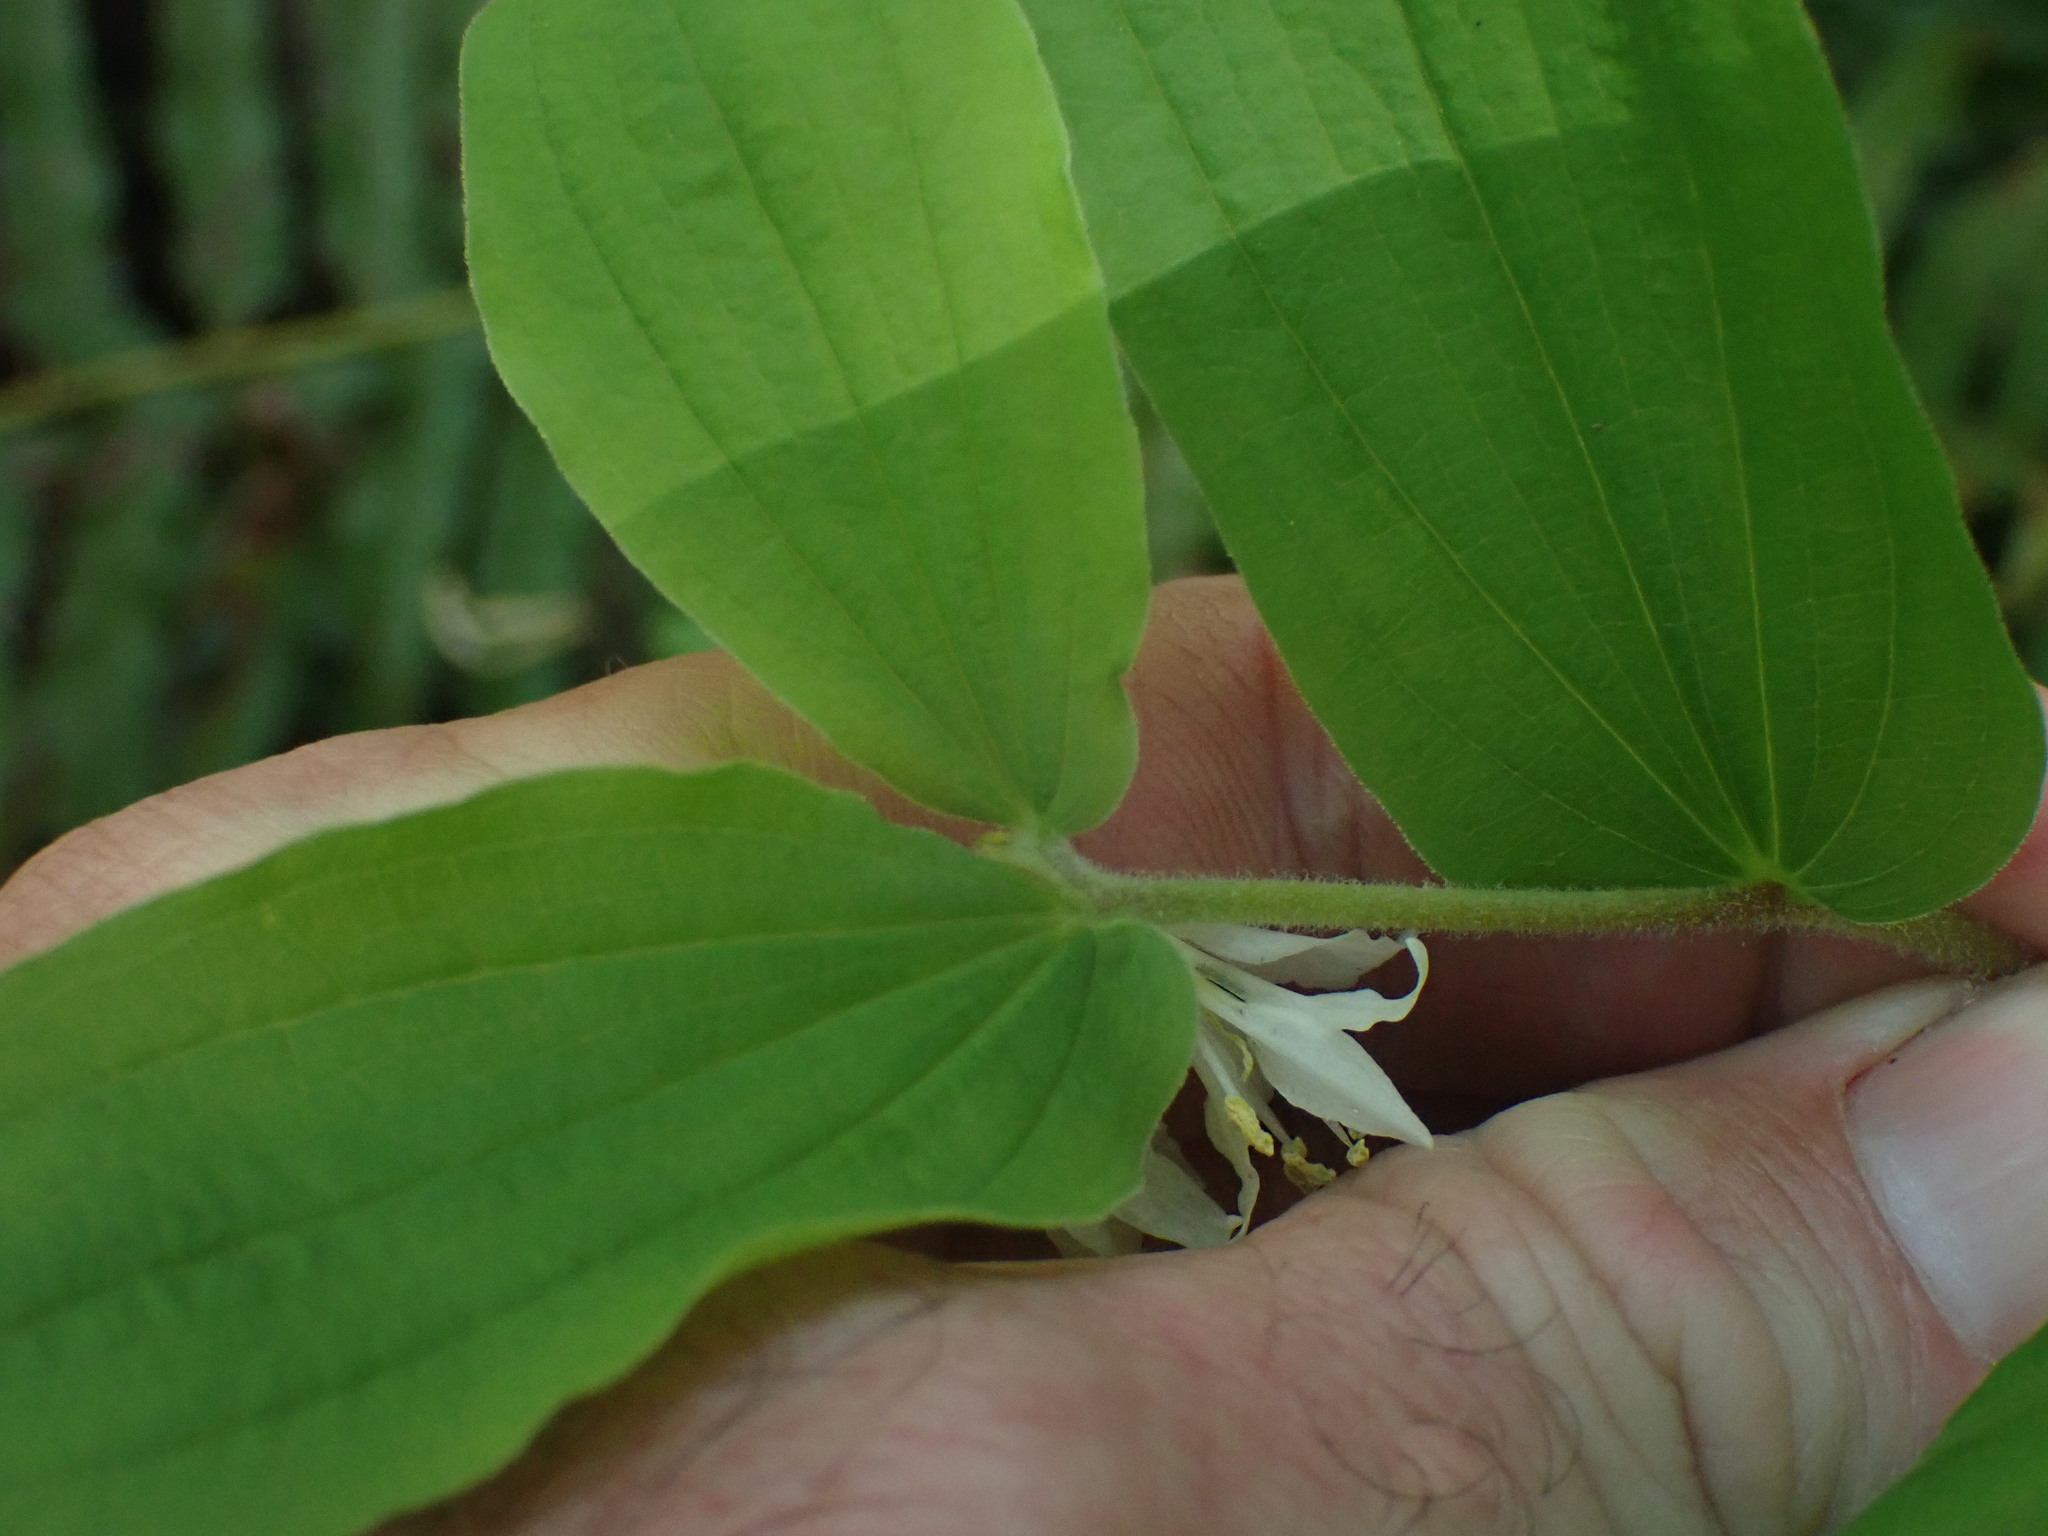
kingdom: Plantae
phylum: Tracheophyta
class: Liliopsida
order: Liliales
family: Liliaceae
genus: Prosartes
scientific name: Prosartes hookeri
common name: Fairy-bells
